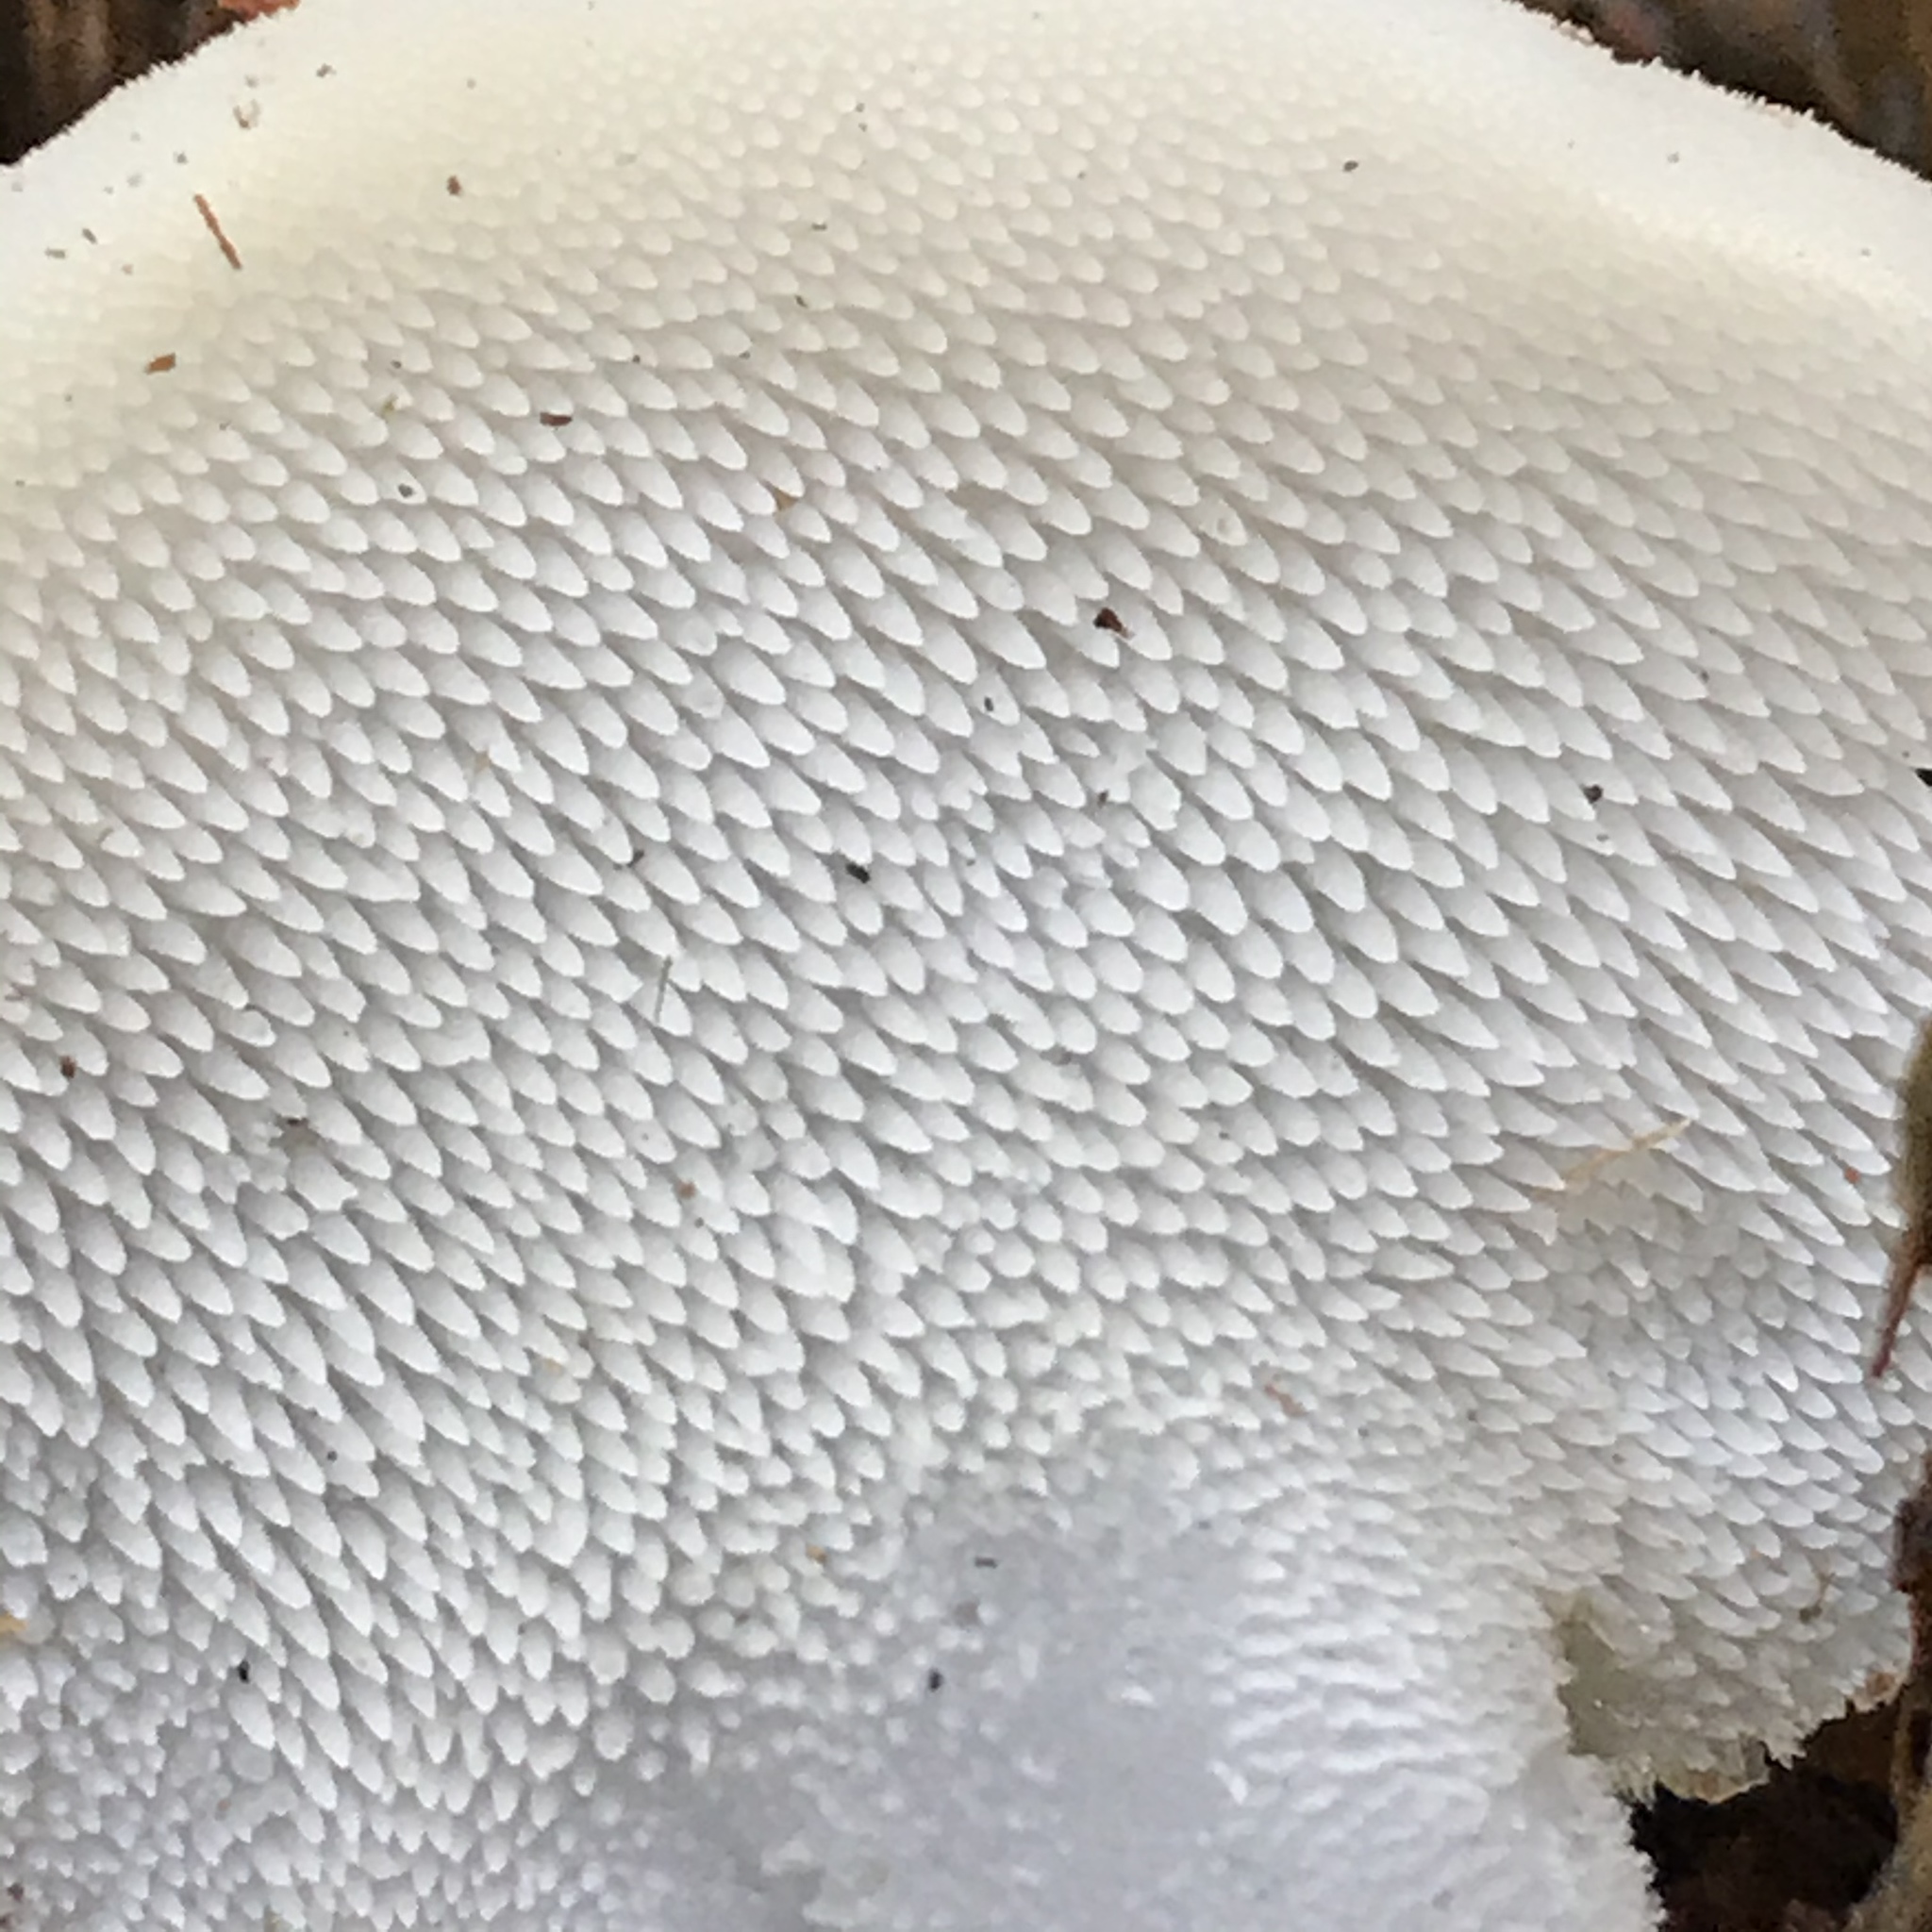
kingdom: Fungi
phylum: Basidiomycota
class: Agaricomycetes
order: Auriculariales
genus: Pseudohydnum
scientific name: Pseudohydnum gelatinosum
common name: Jelly tongue
